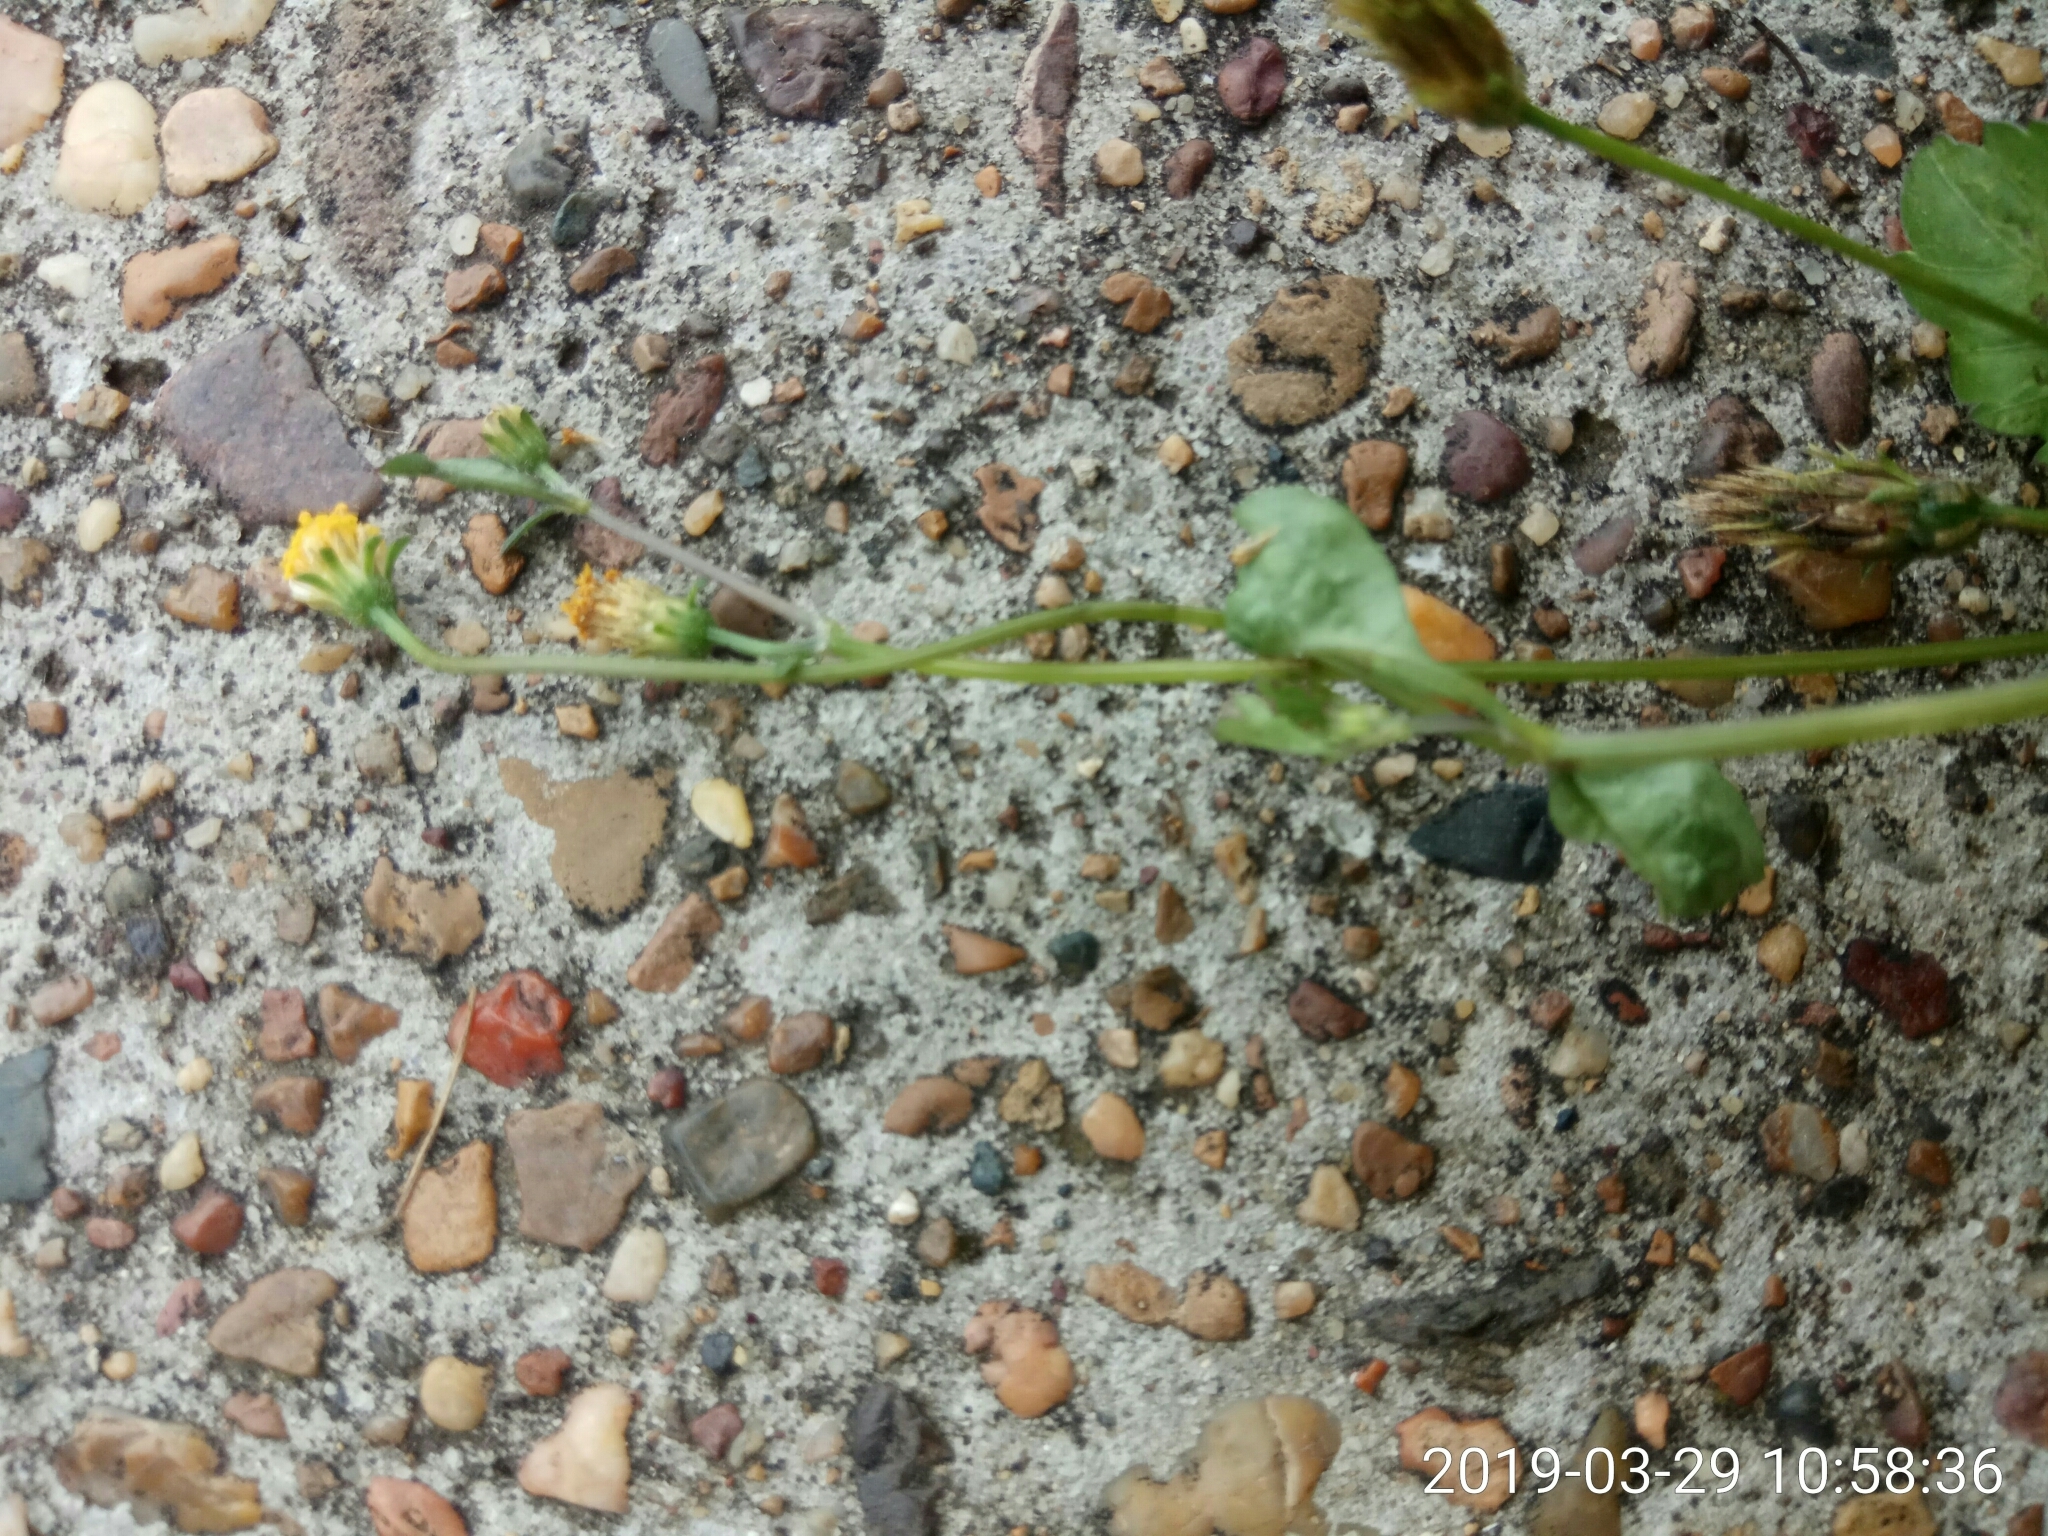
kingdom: Plantae
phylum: Tracheophyta
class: Magnoliopsida
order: Asterales
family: Asteraceae
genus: Bidens
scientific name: Bidens pilosa
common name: Black-jack
